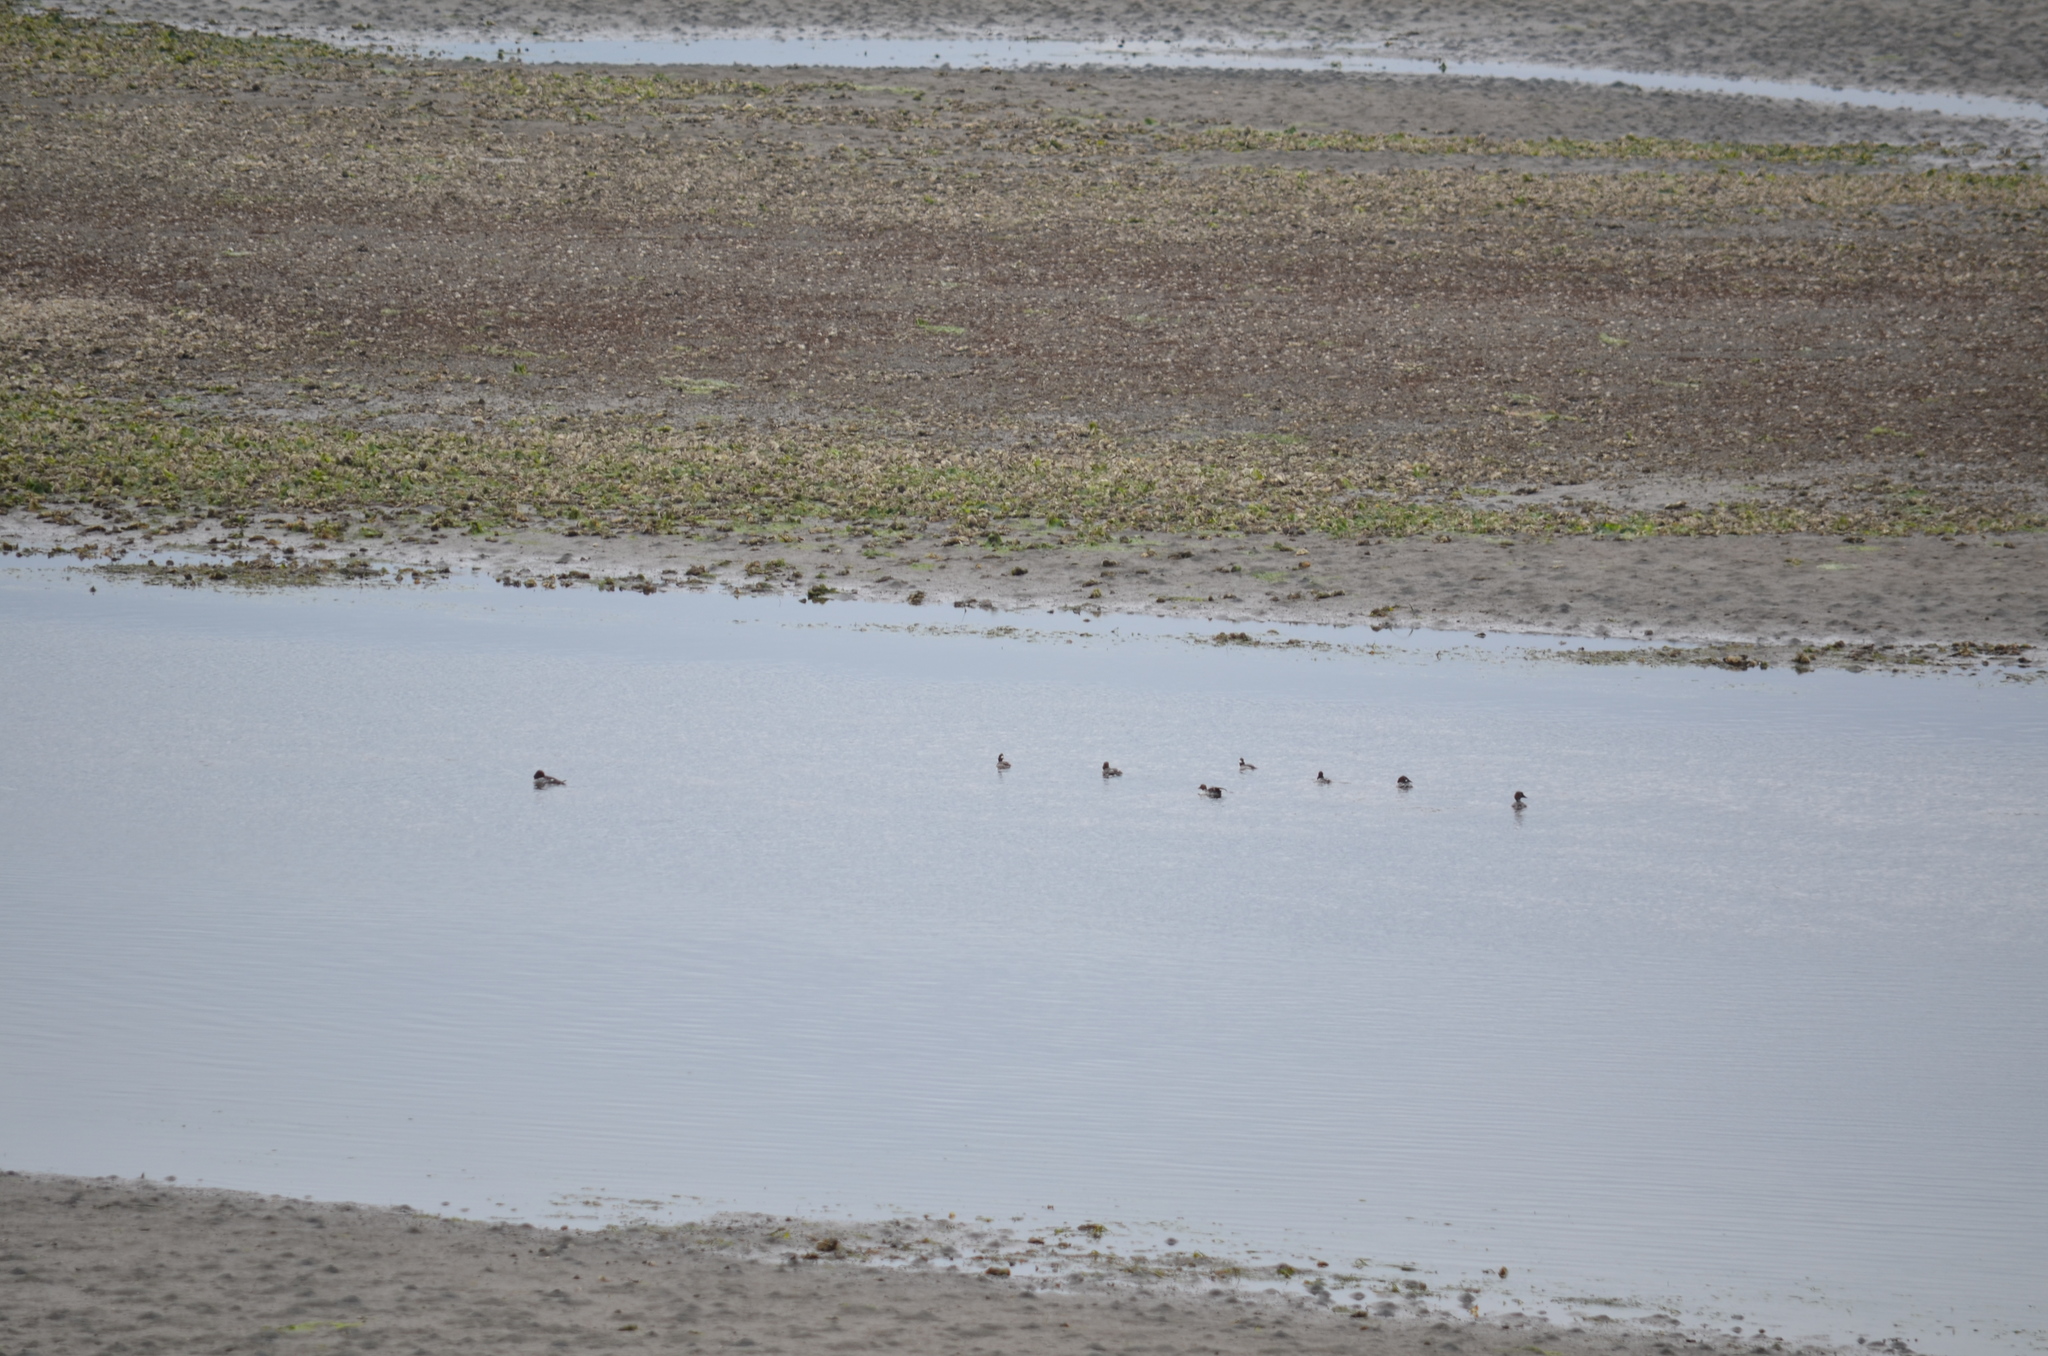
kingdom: Animalia
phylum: Chordata
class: Aves
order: Anseriformes
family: Anatidae
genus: Bucephala
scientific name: Bucephala albeola
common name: Bufflehead
